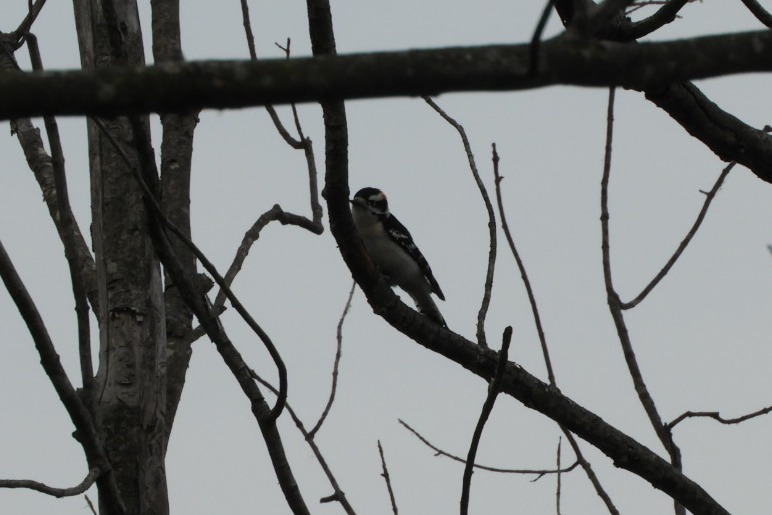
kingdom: Animalia
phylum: Chordata
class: Aves
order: Piciformes
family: Picidae
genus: Dryobates
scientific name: Dryobates pubescens
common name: Downy woodpecker
